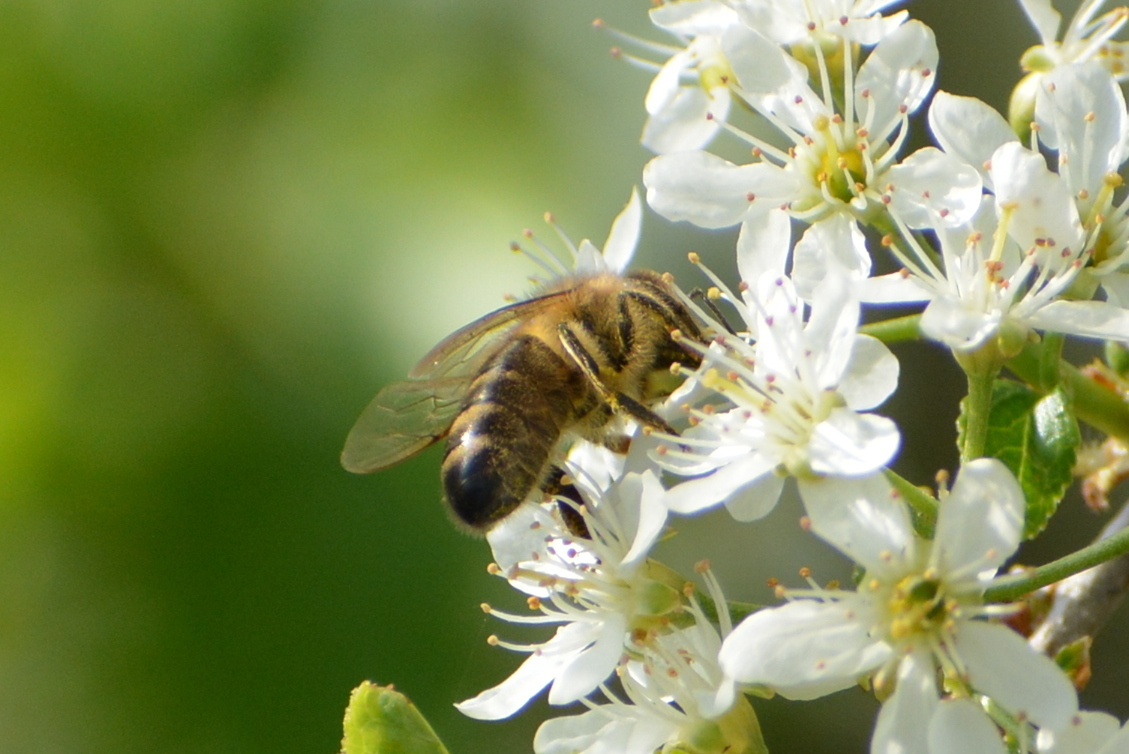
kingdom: Animalia
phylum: Arthropoda
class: Insecta
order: Hymenoptera
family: Apidae
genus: Apis
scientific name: Apis mellifera
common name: Honey bee
